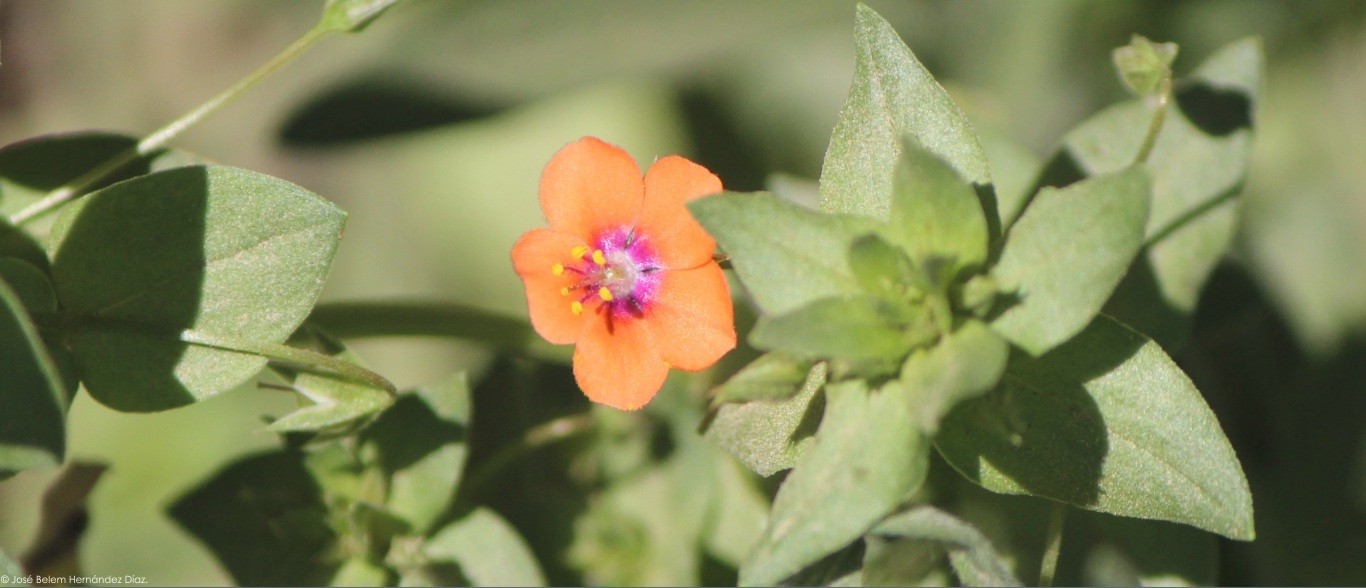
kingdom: Plantae
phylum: Tracheophyta
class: Magnoliopsida
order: Ericales
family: Primulaceae
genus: Lysimachia
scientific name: Lysimachia arvensis
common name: Scarlet pimpernel
